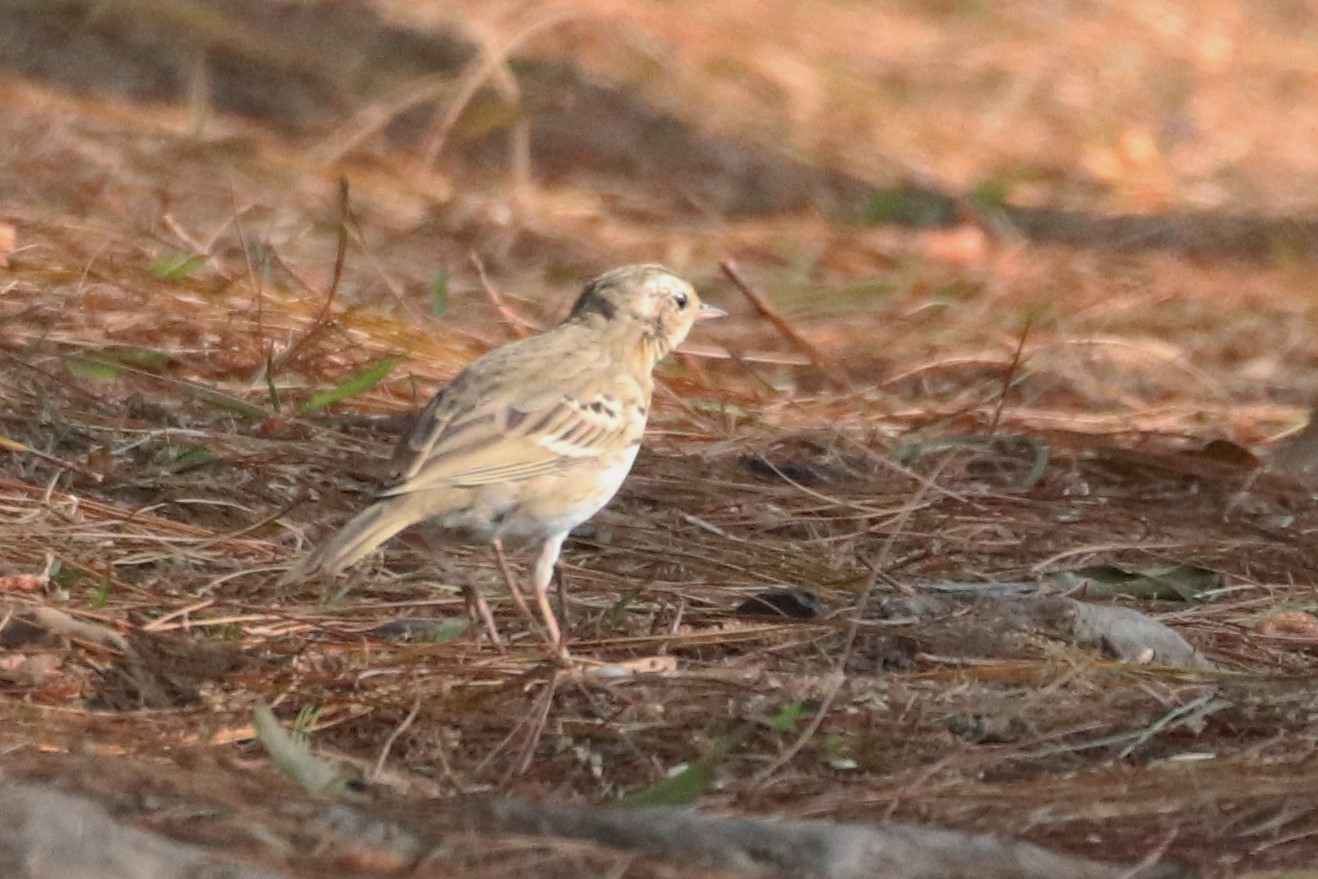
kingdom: Animalia
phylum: Chordata
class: Aves
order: Passeriformes
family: Motacillidae
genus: Anthus
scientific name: Anthus hodgsoni
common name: Olive-backed pipit
